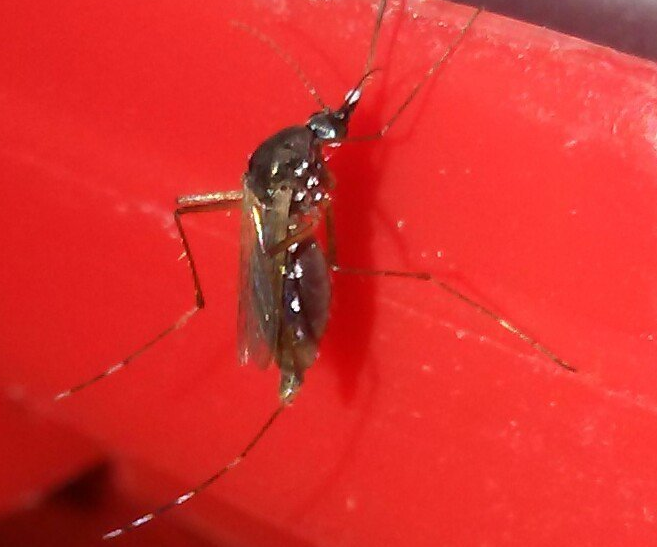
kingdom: Animalia
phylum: Arthropoda
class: Insecta
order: Diptera
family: Culicidae
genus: Aedes
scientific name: Aedes albopictus
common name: Tiger mosquito
